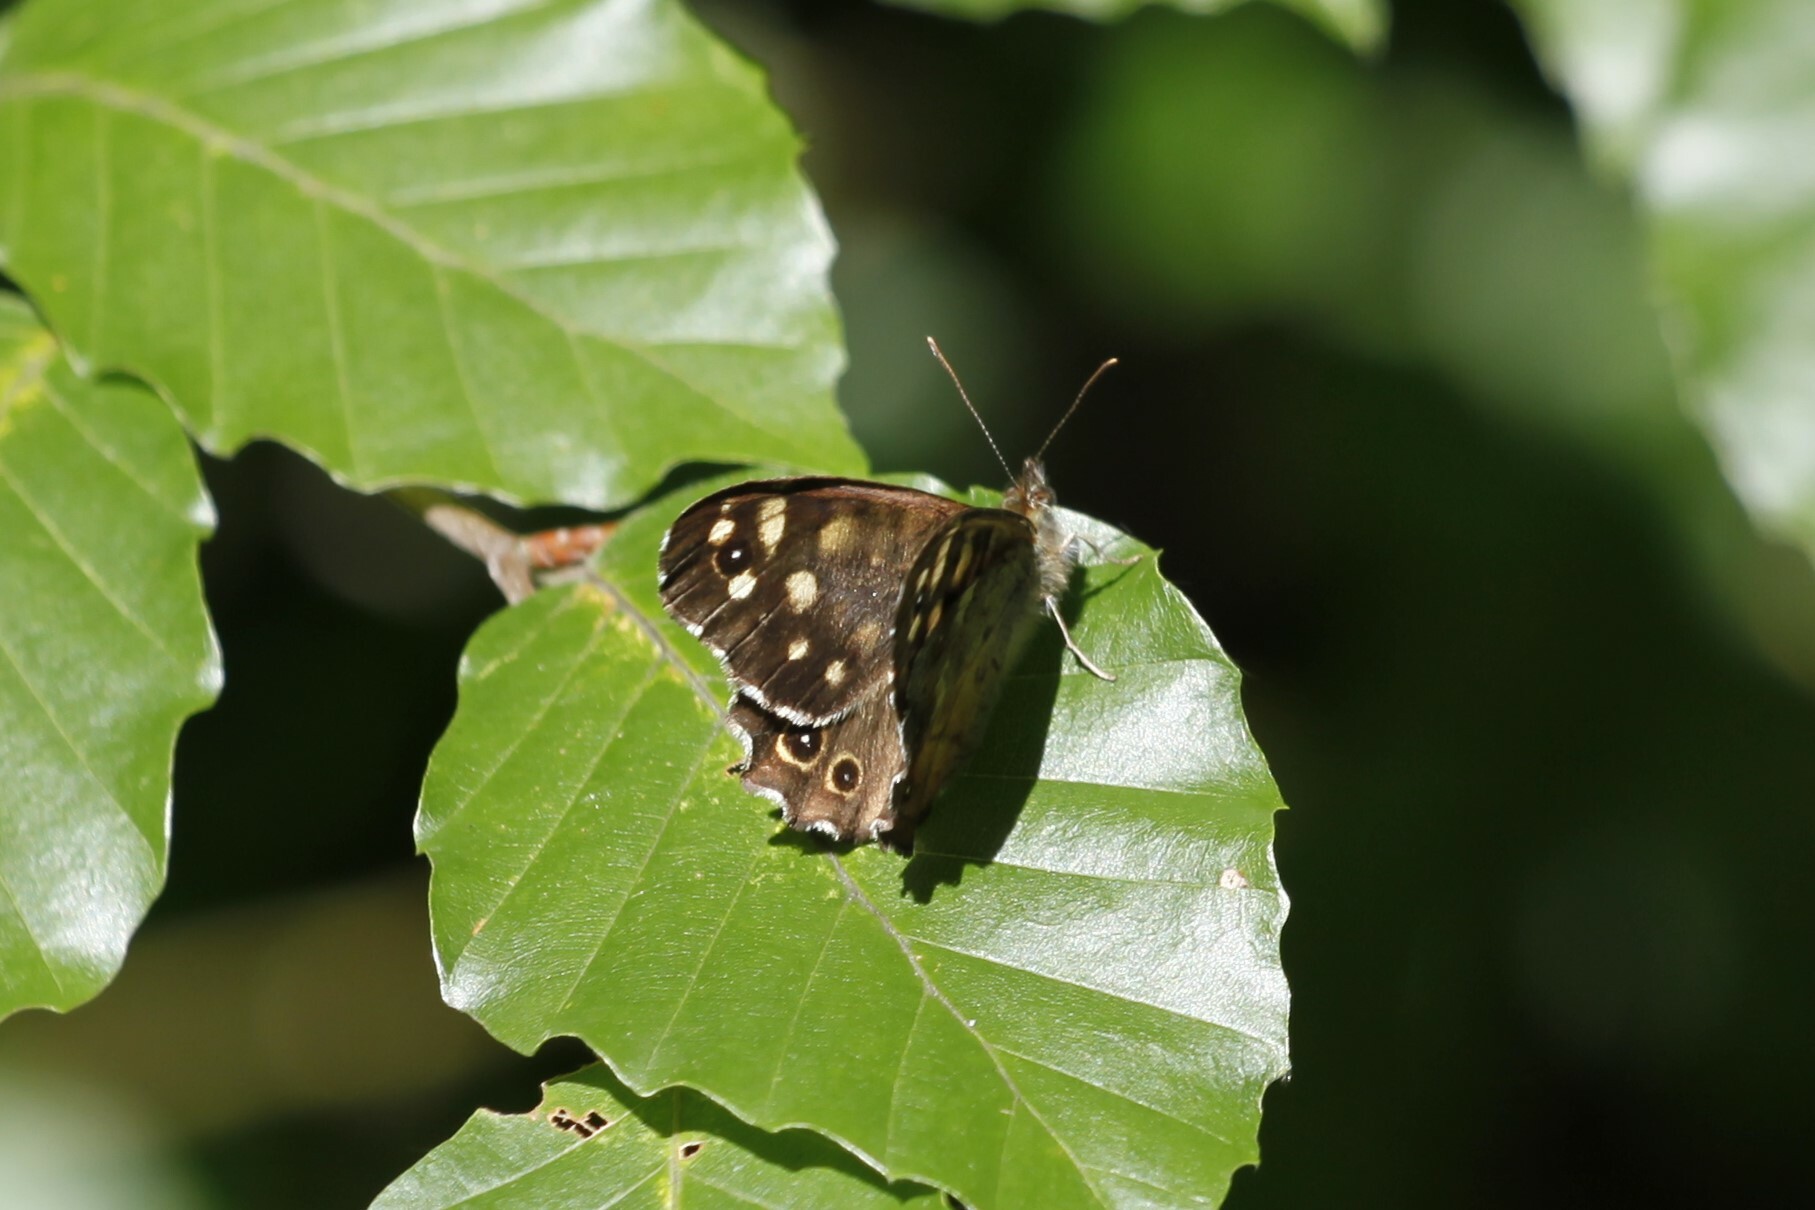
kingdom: Animalia
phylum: Arthropoda
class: Insecta
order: Lepidoptera
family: Nymphalidae
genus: Pararge
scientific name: Pararge aegeria
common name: Speckled wood
